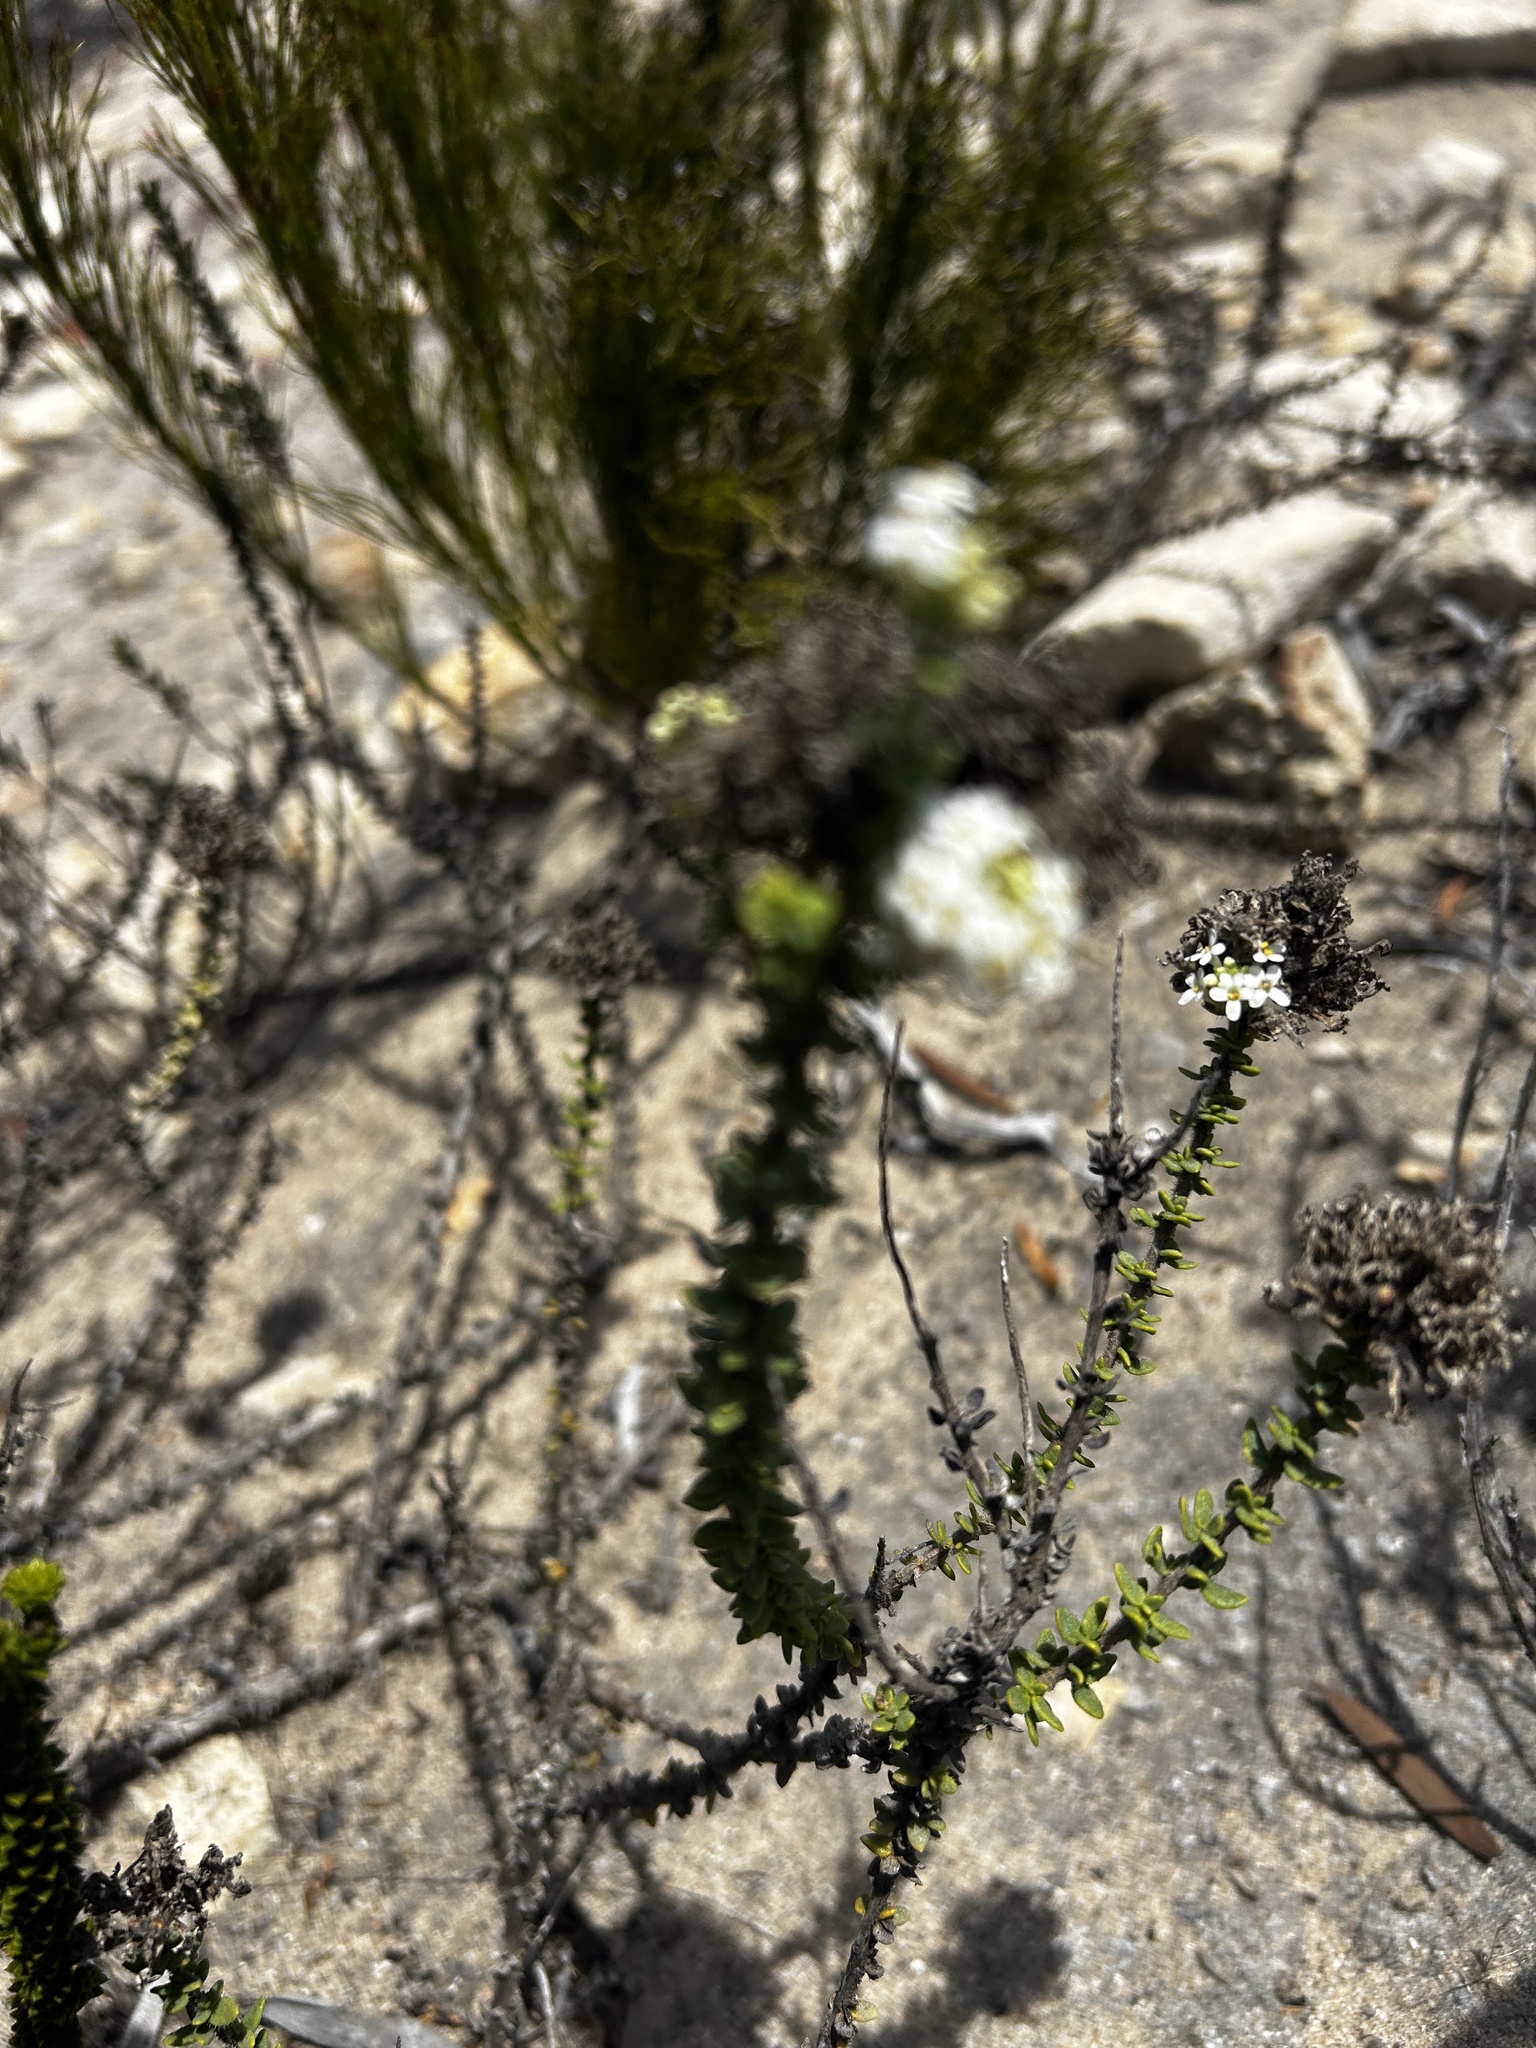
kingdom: Plantae
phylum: Tracheophyta
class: Magnoliopsida
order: Lamiales
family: Scrophulariaceae
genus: Selago
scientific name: Selago setulosa
